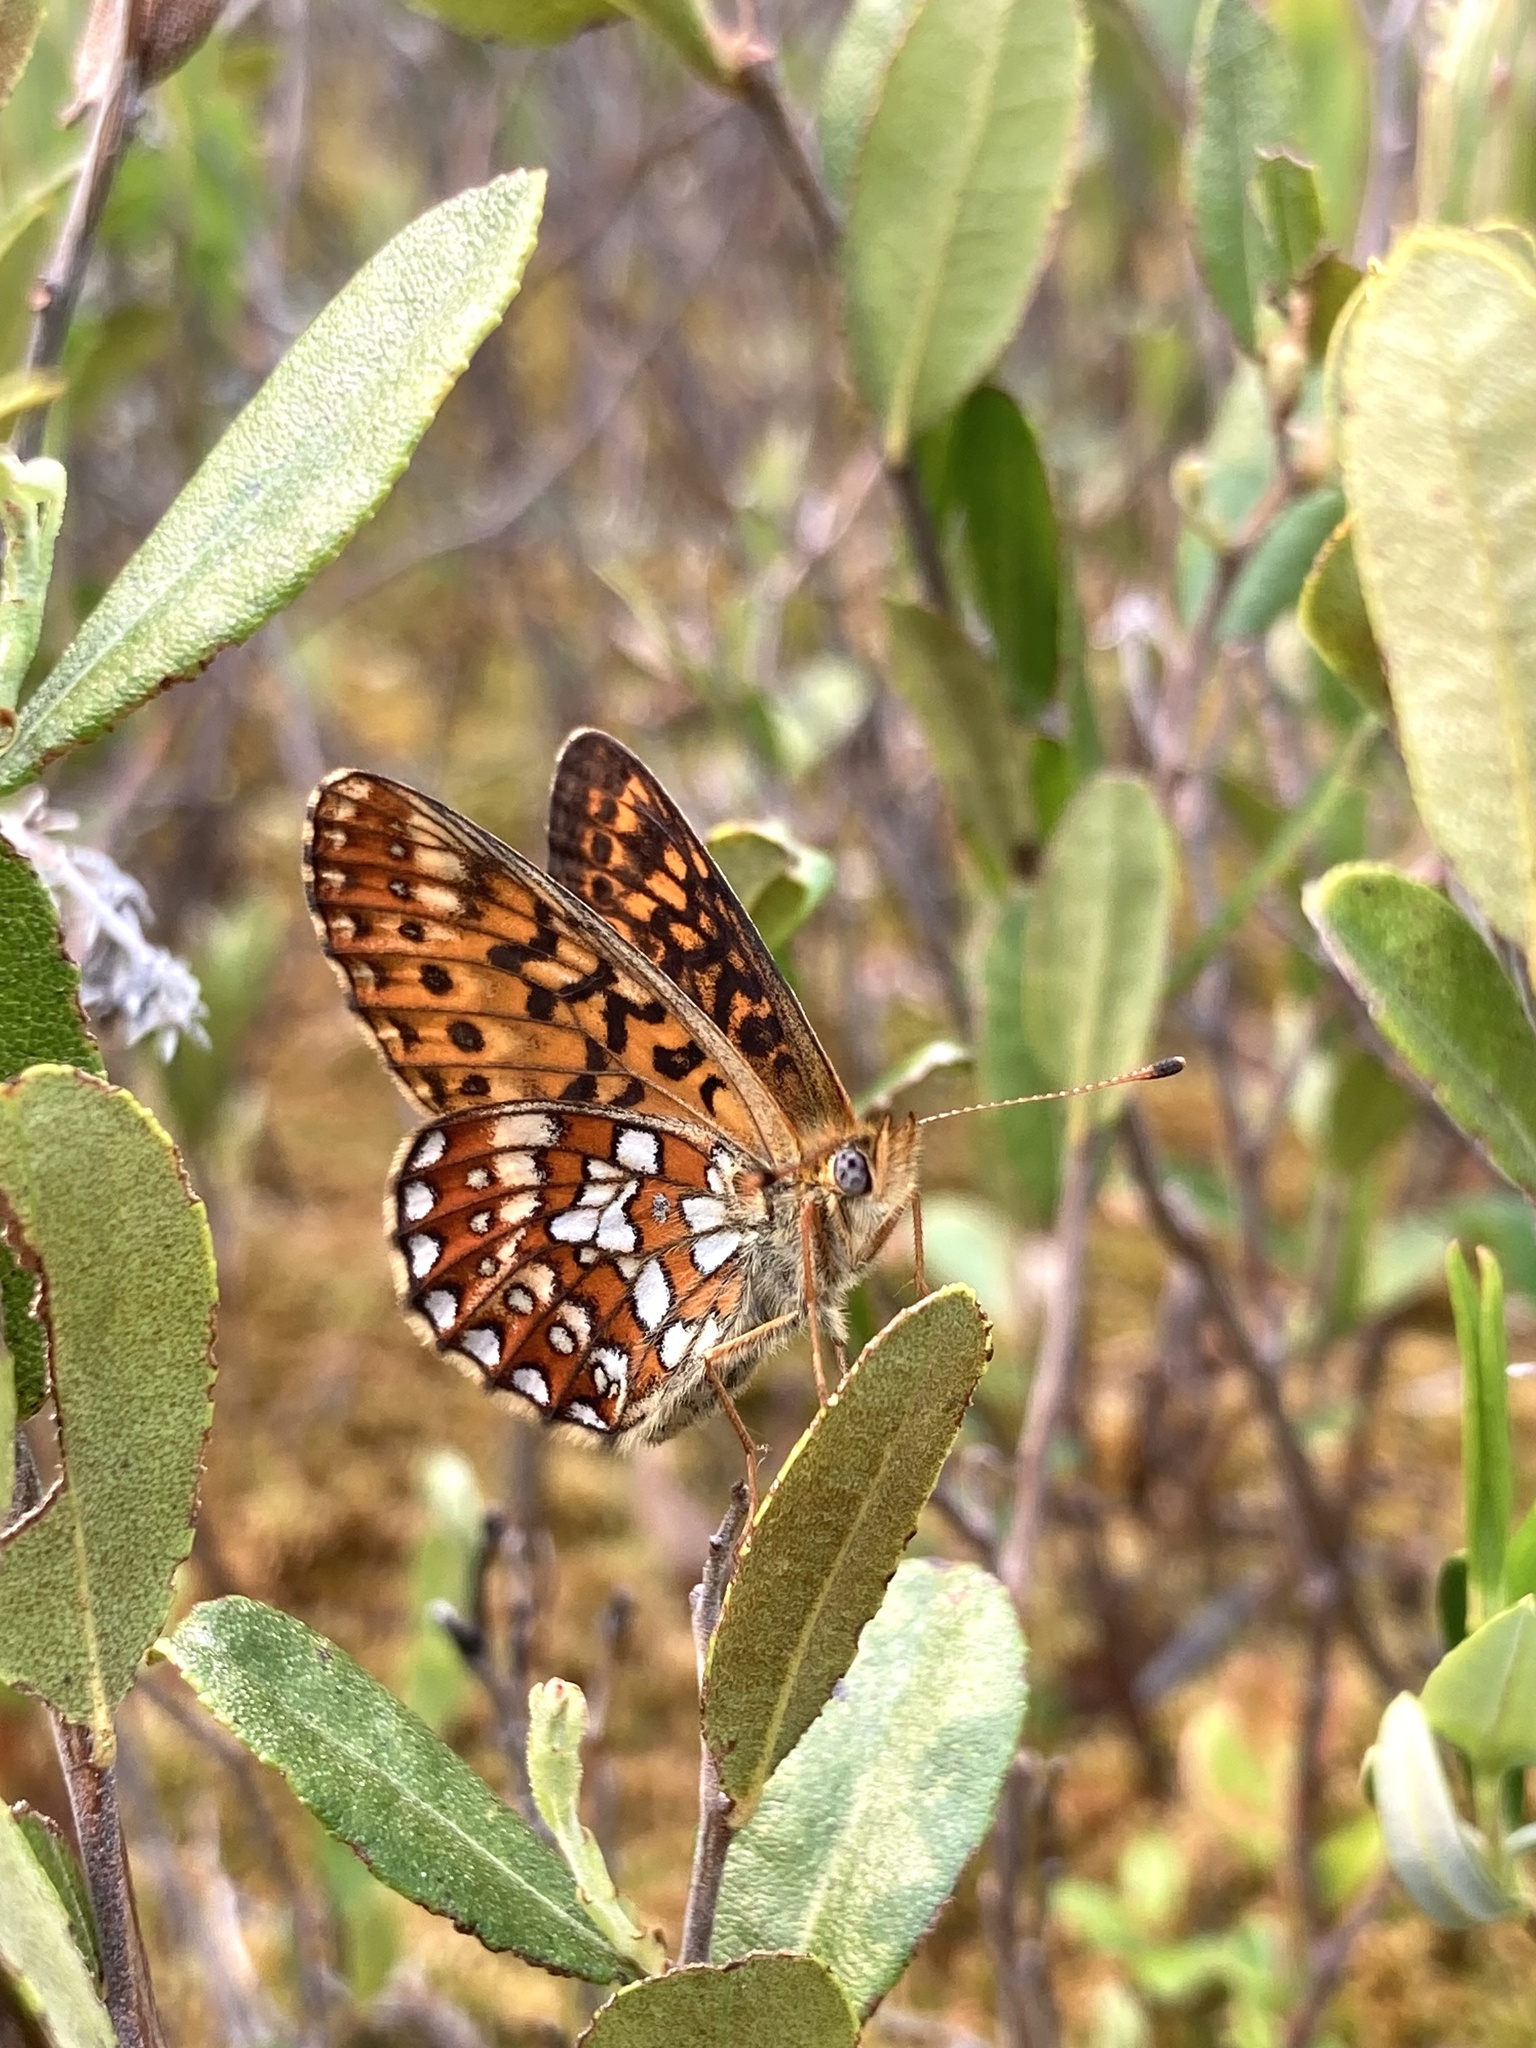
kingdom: Animalia
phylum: Arthropoda
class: Insecta
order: Lepidoptera
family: Nymphalidae
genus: Boloria
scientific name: Boloria eunomia
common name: Bog fritillary
